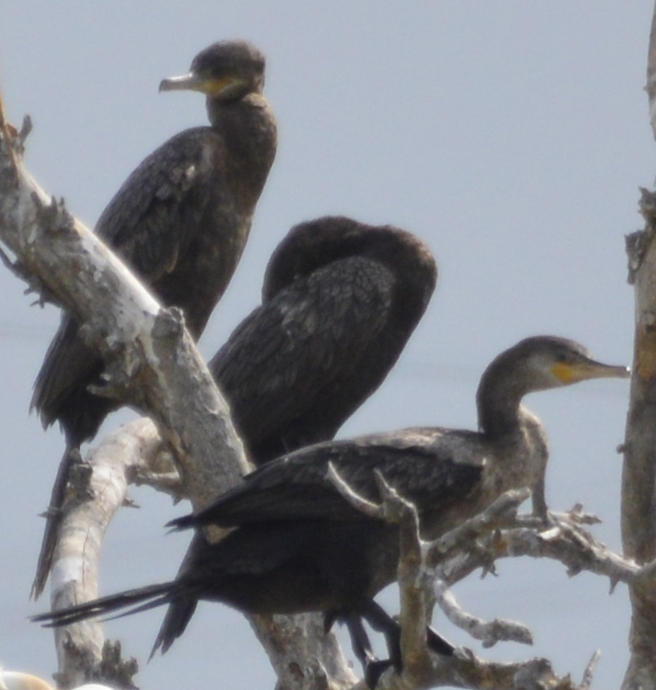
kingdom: Animalia
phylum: Chordata
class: Aves
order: Suliformes
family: Phalacrocoracidae
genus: Phalacrocorax
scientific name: Phalacrocorax brasilianus
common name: Neotropic cormorant
